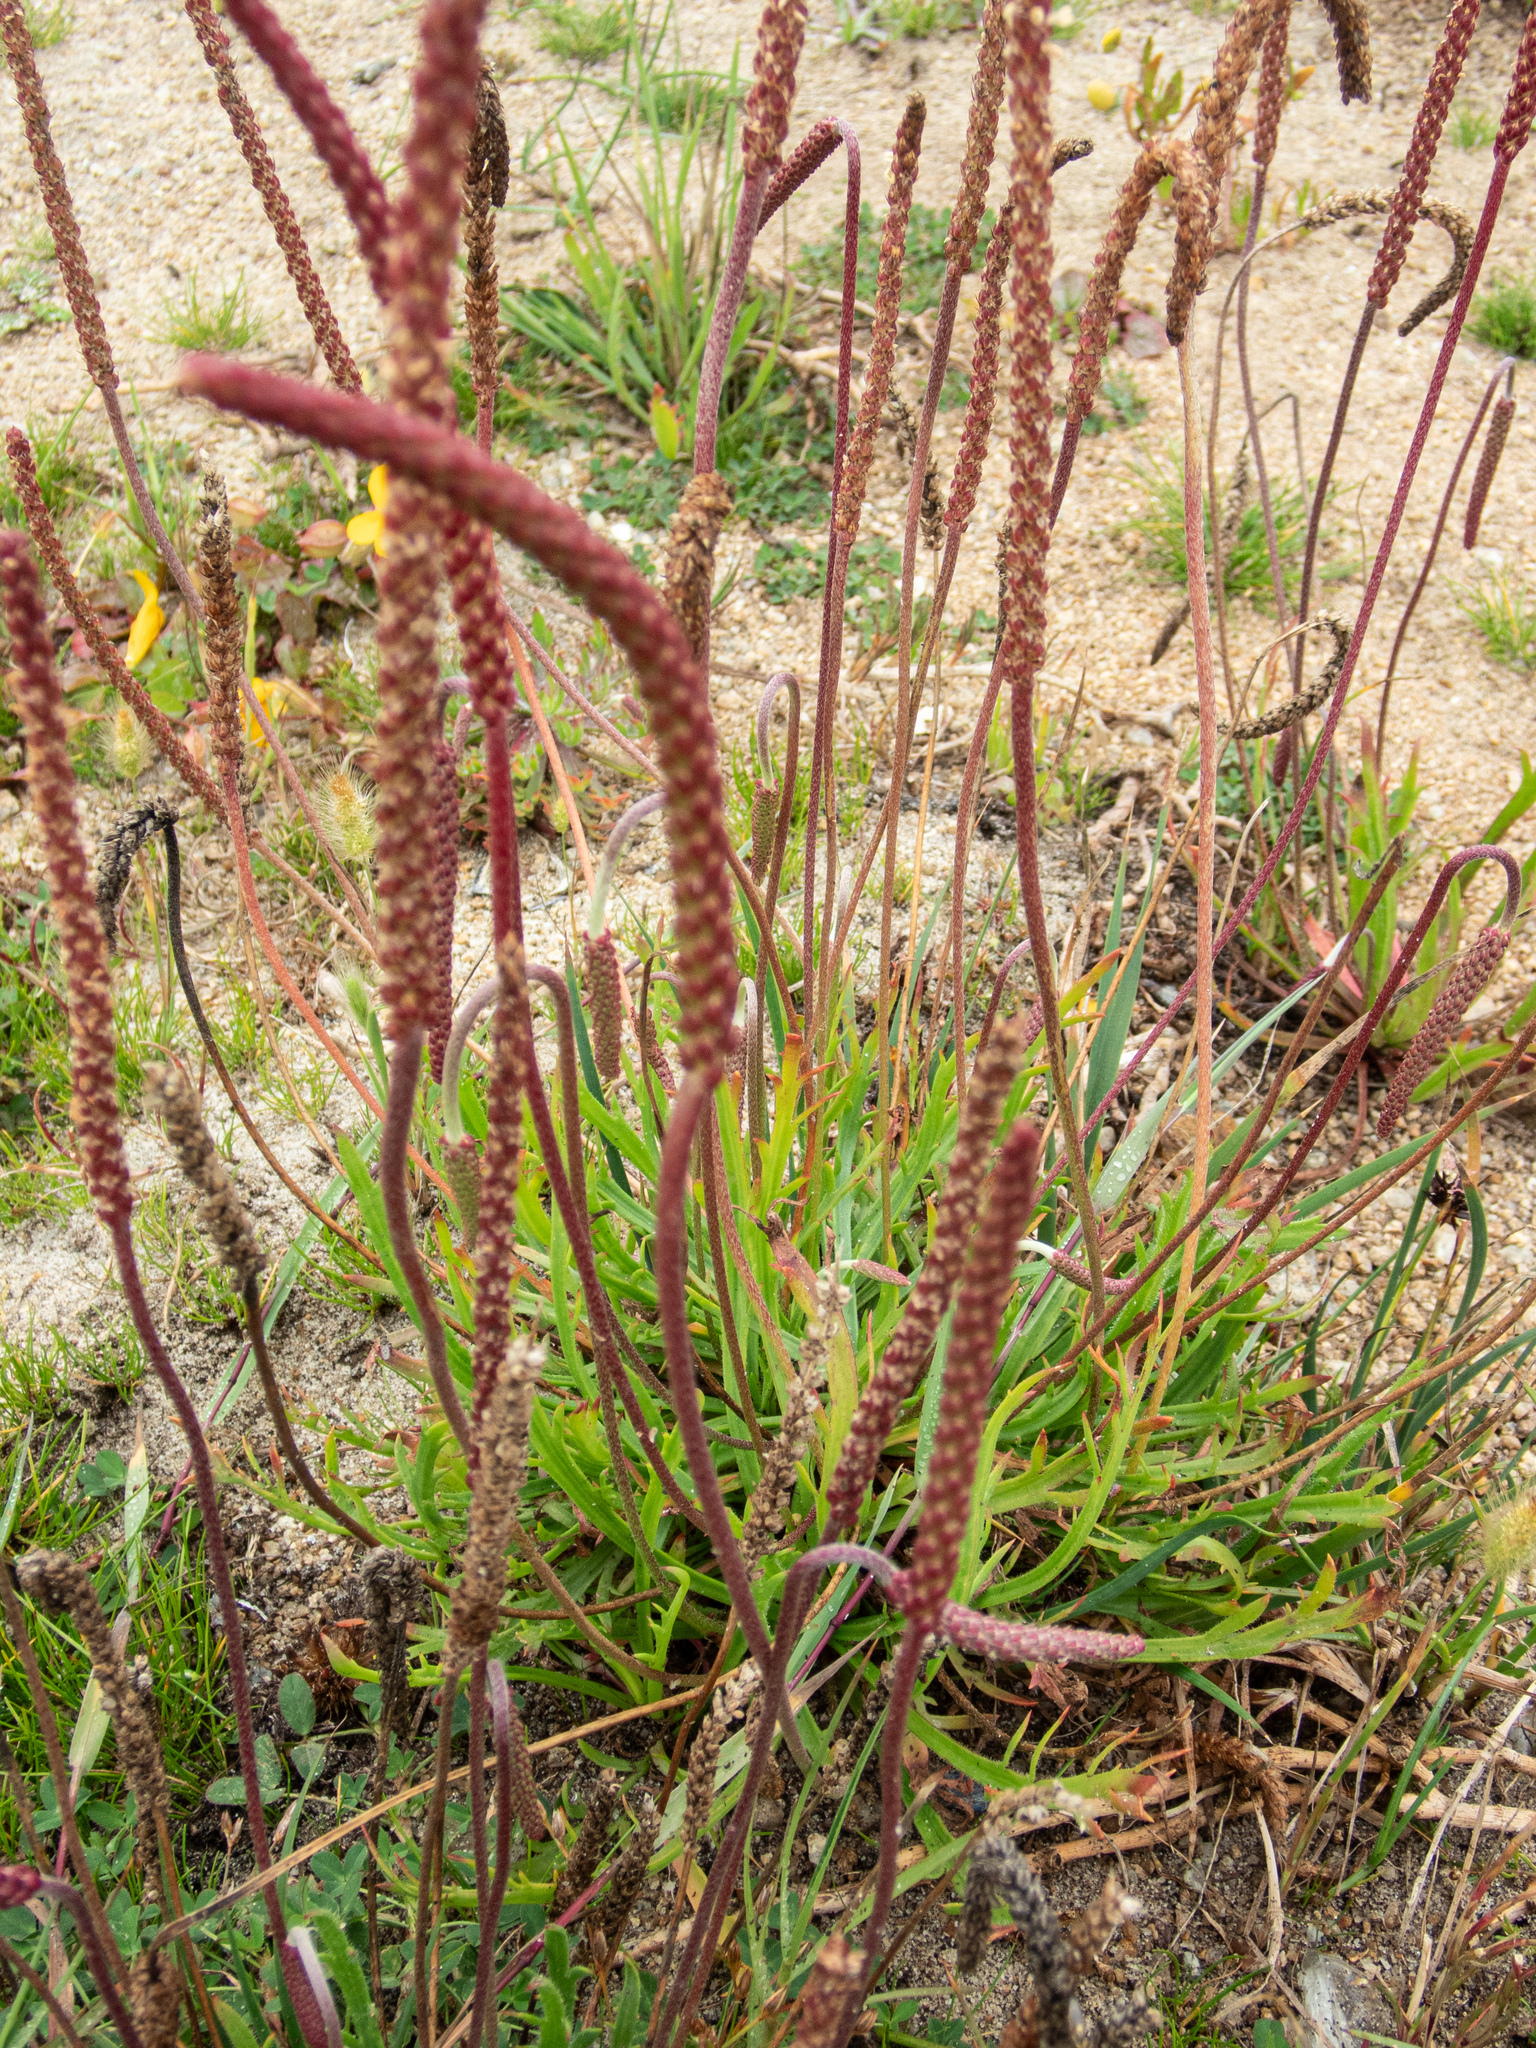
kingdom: Plantae
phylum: Tracheophyta
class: Magnoliopsida
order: Lamiales
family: Plantaginaceae
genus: Plantago
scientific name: Plantago coronopus
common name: Buck's-horn plantain
